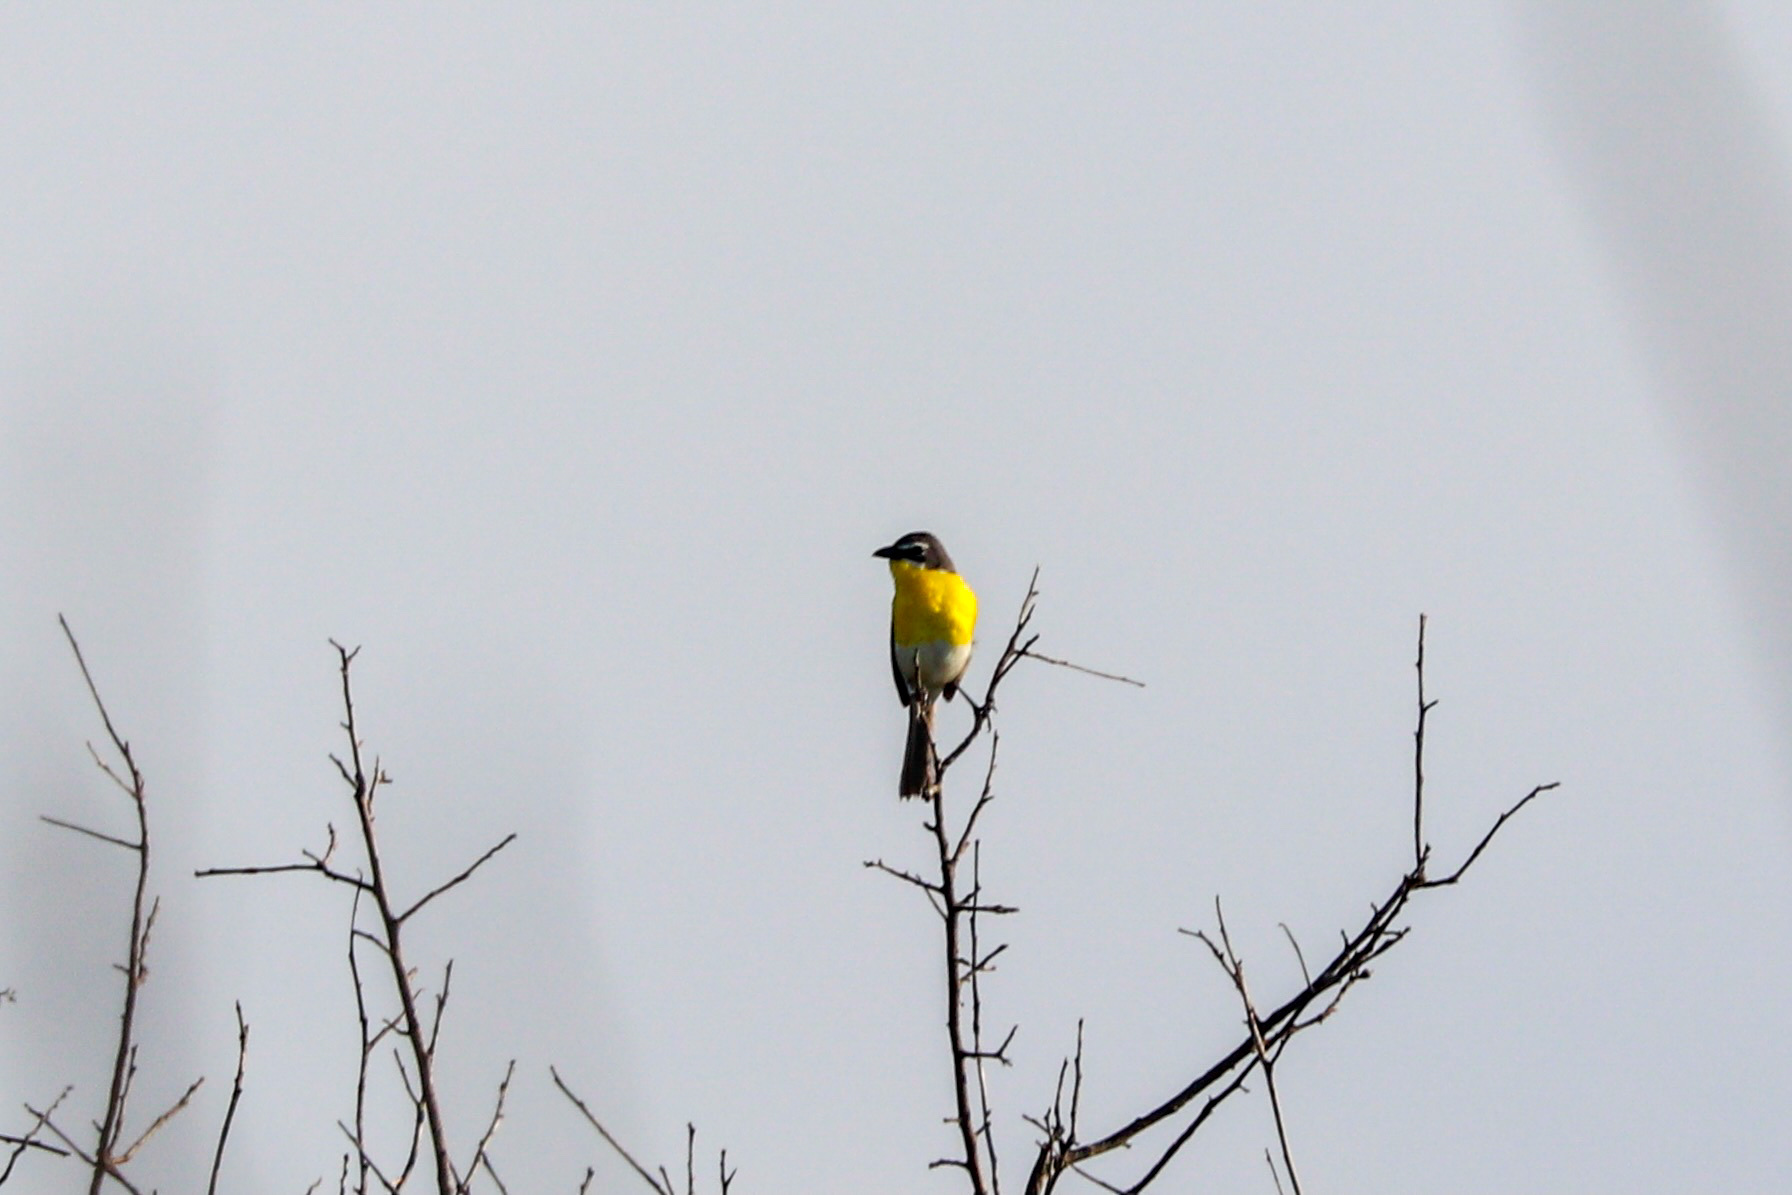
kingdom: Animalia
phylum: Chordata
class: Aves
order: Passeriformes
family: Parulidae
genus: Icteria
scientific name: Icteria virens
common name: Yellow-breasted chat
